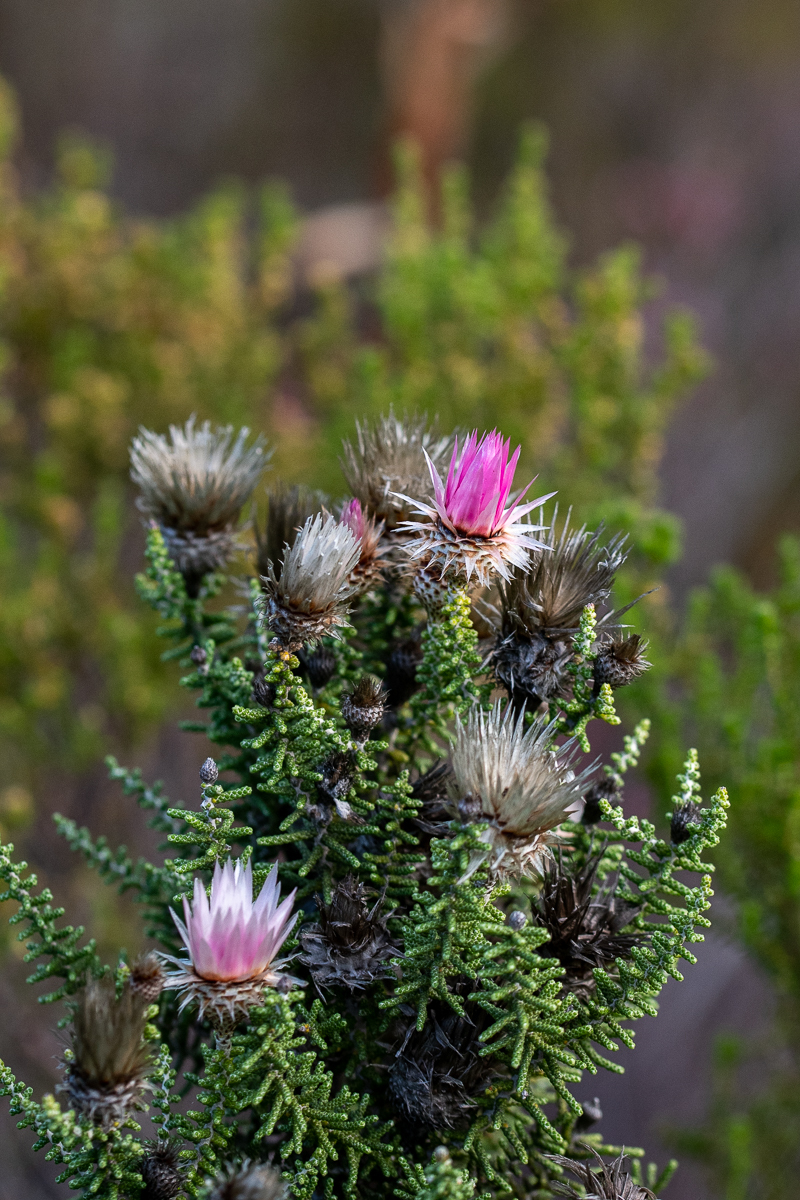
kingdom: Plantae
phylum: Tracheophyta
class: Magnoliopsida
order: Asterales
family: Asteraceae
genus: Phaenocoma
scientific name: Phaenocoma prolifera
